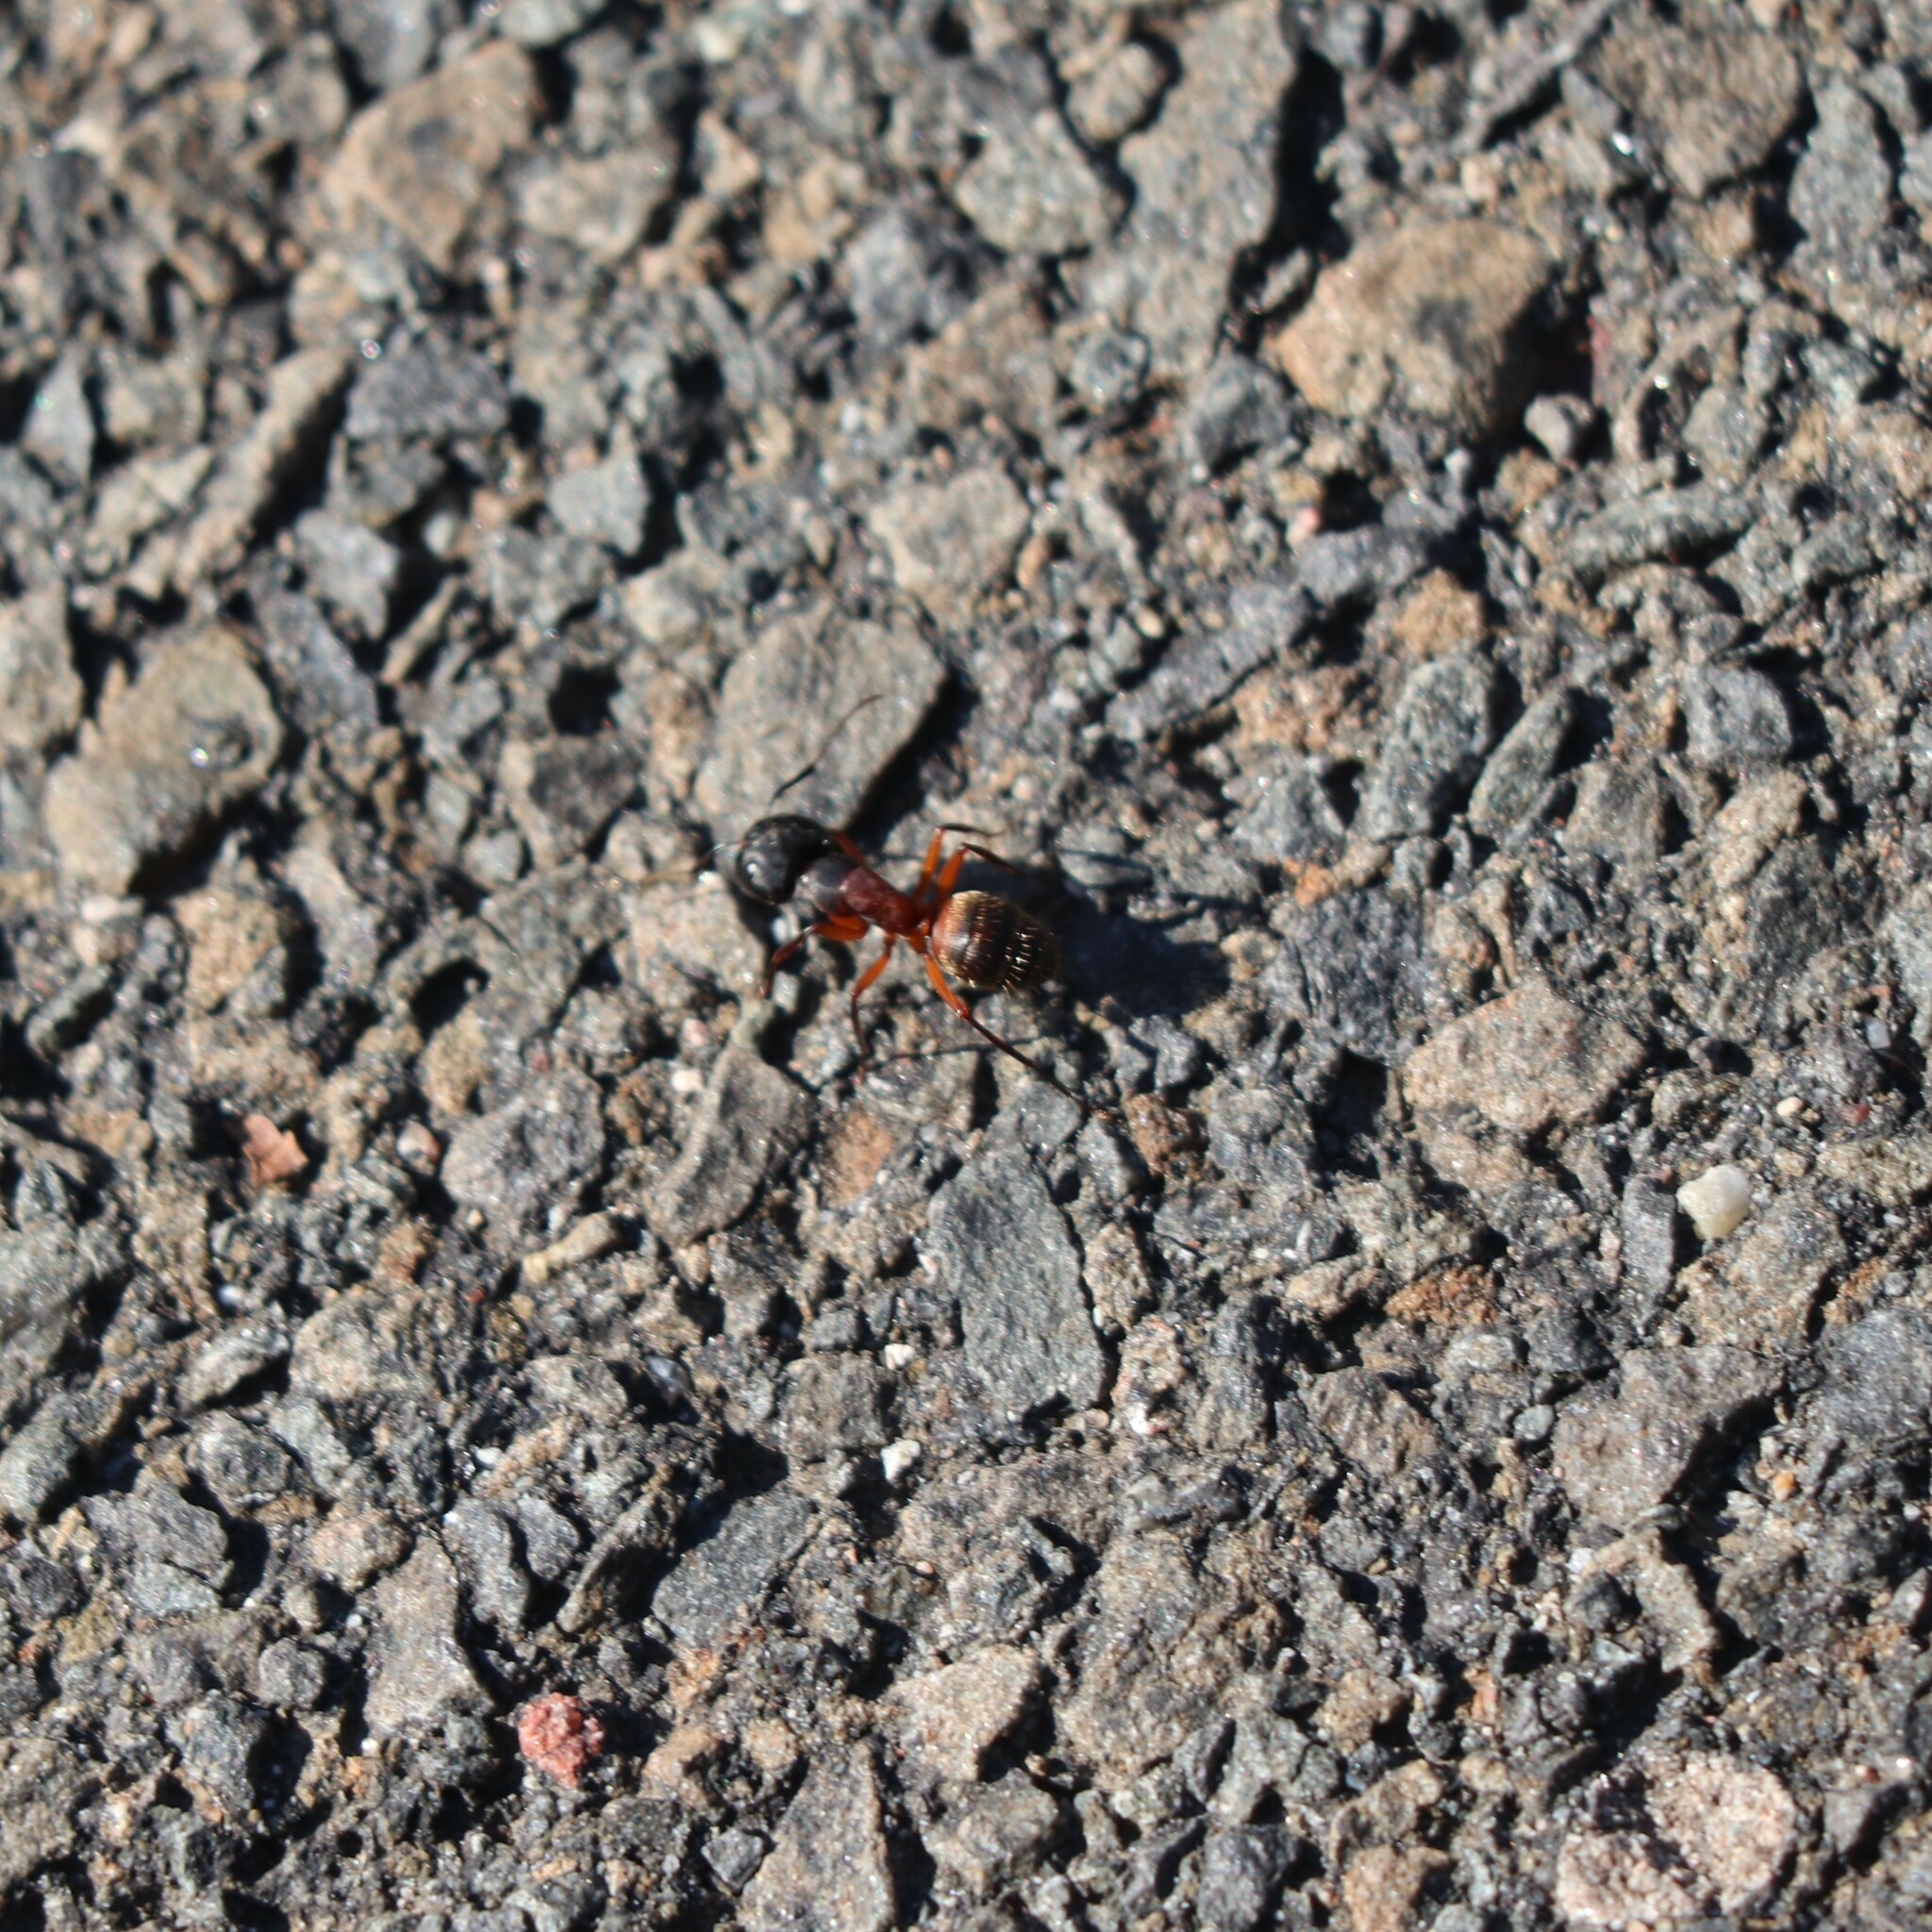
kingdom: Animalia
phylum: Arthropoda
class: Insecta
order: Hymenoptera
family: Formicidae
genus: Camponotus
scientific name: Camponotus chromaiodes
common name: Red carpenter ant
